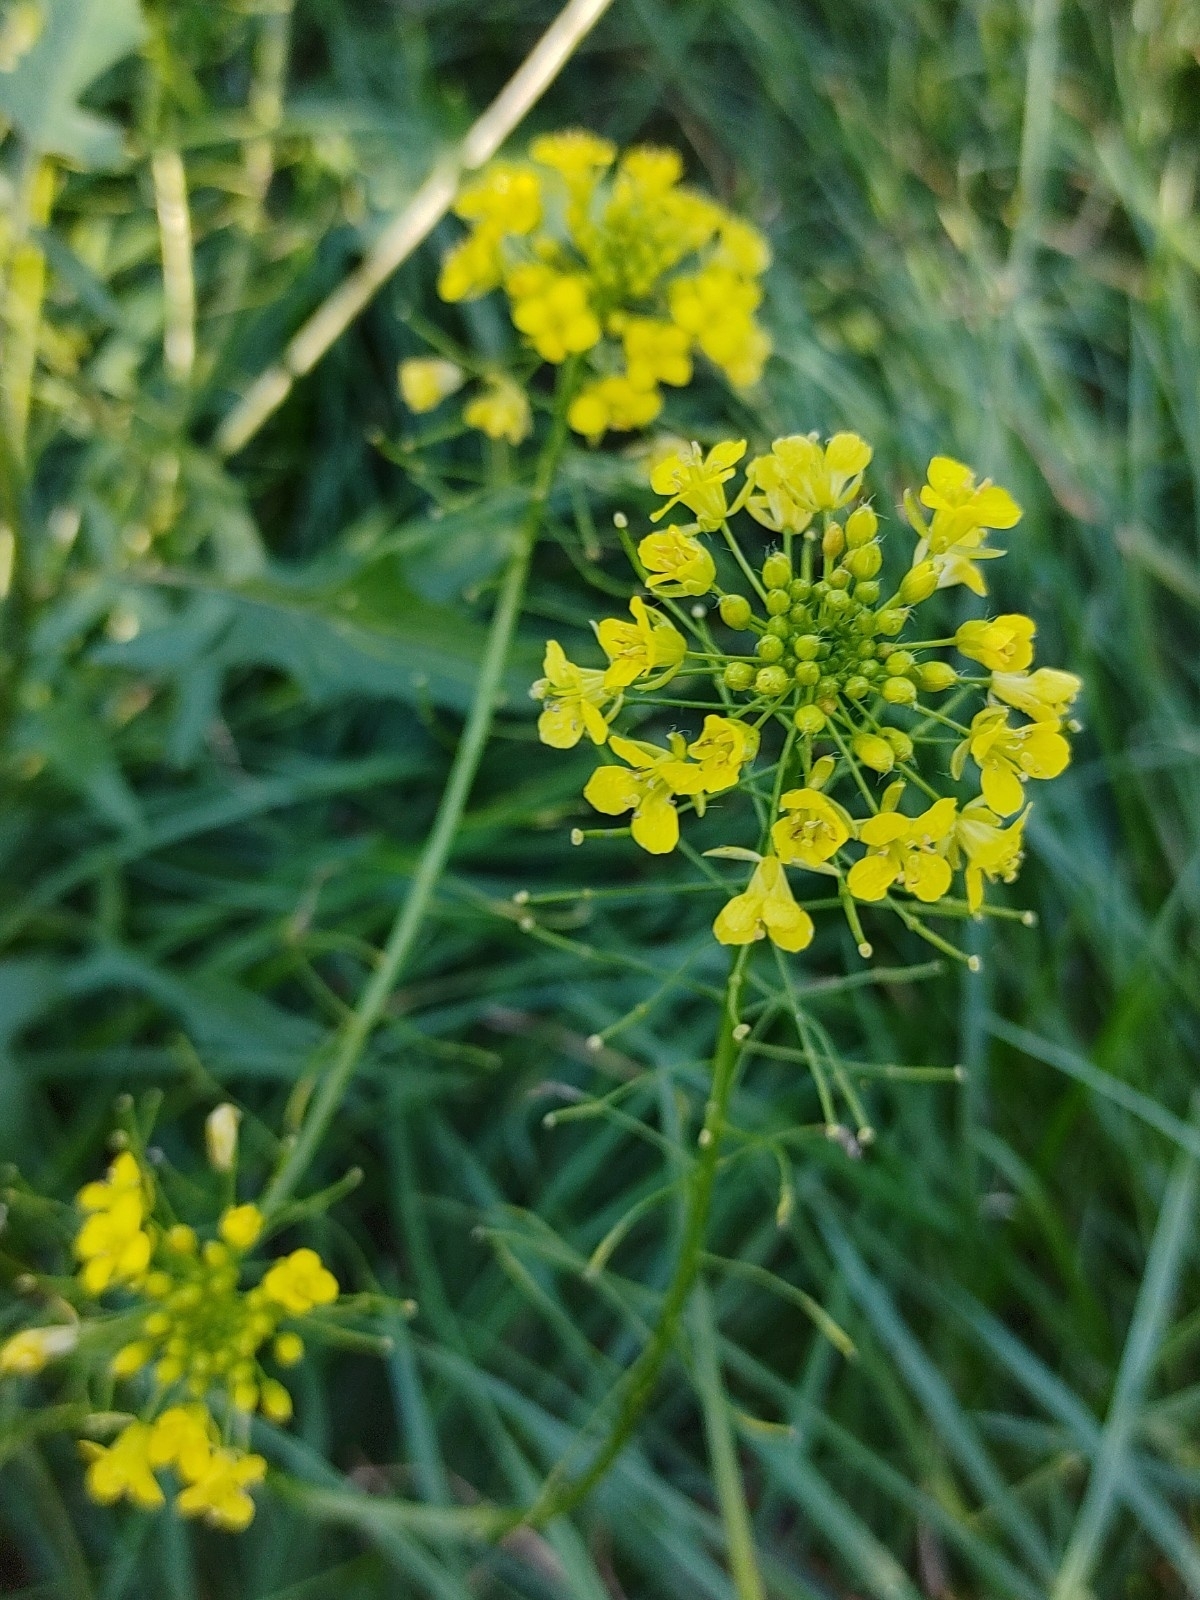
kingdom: Plantae
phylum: Tracheophyta
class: Magnoliopsida
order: Brassicales
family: Brassicaceae
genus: Sisymbrium
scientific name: Sisymbrium loeselii
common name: False london-rocket
